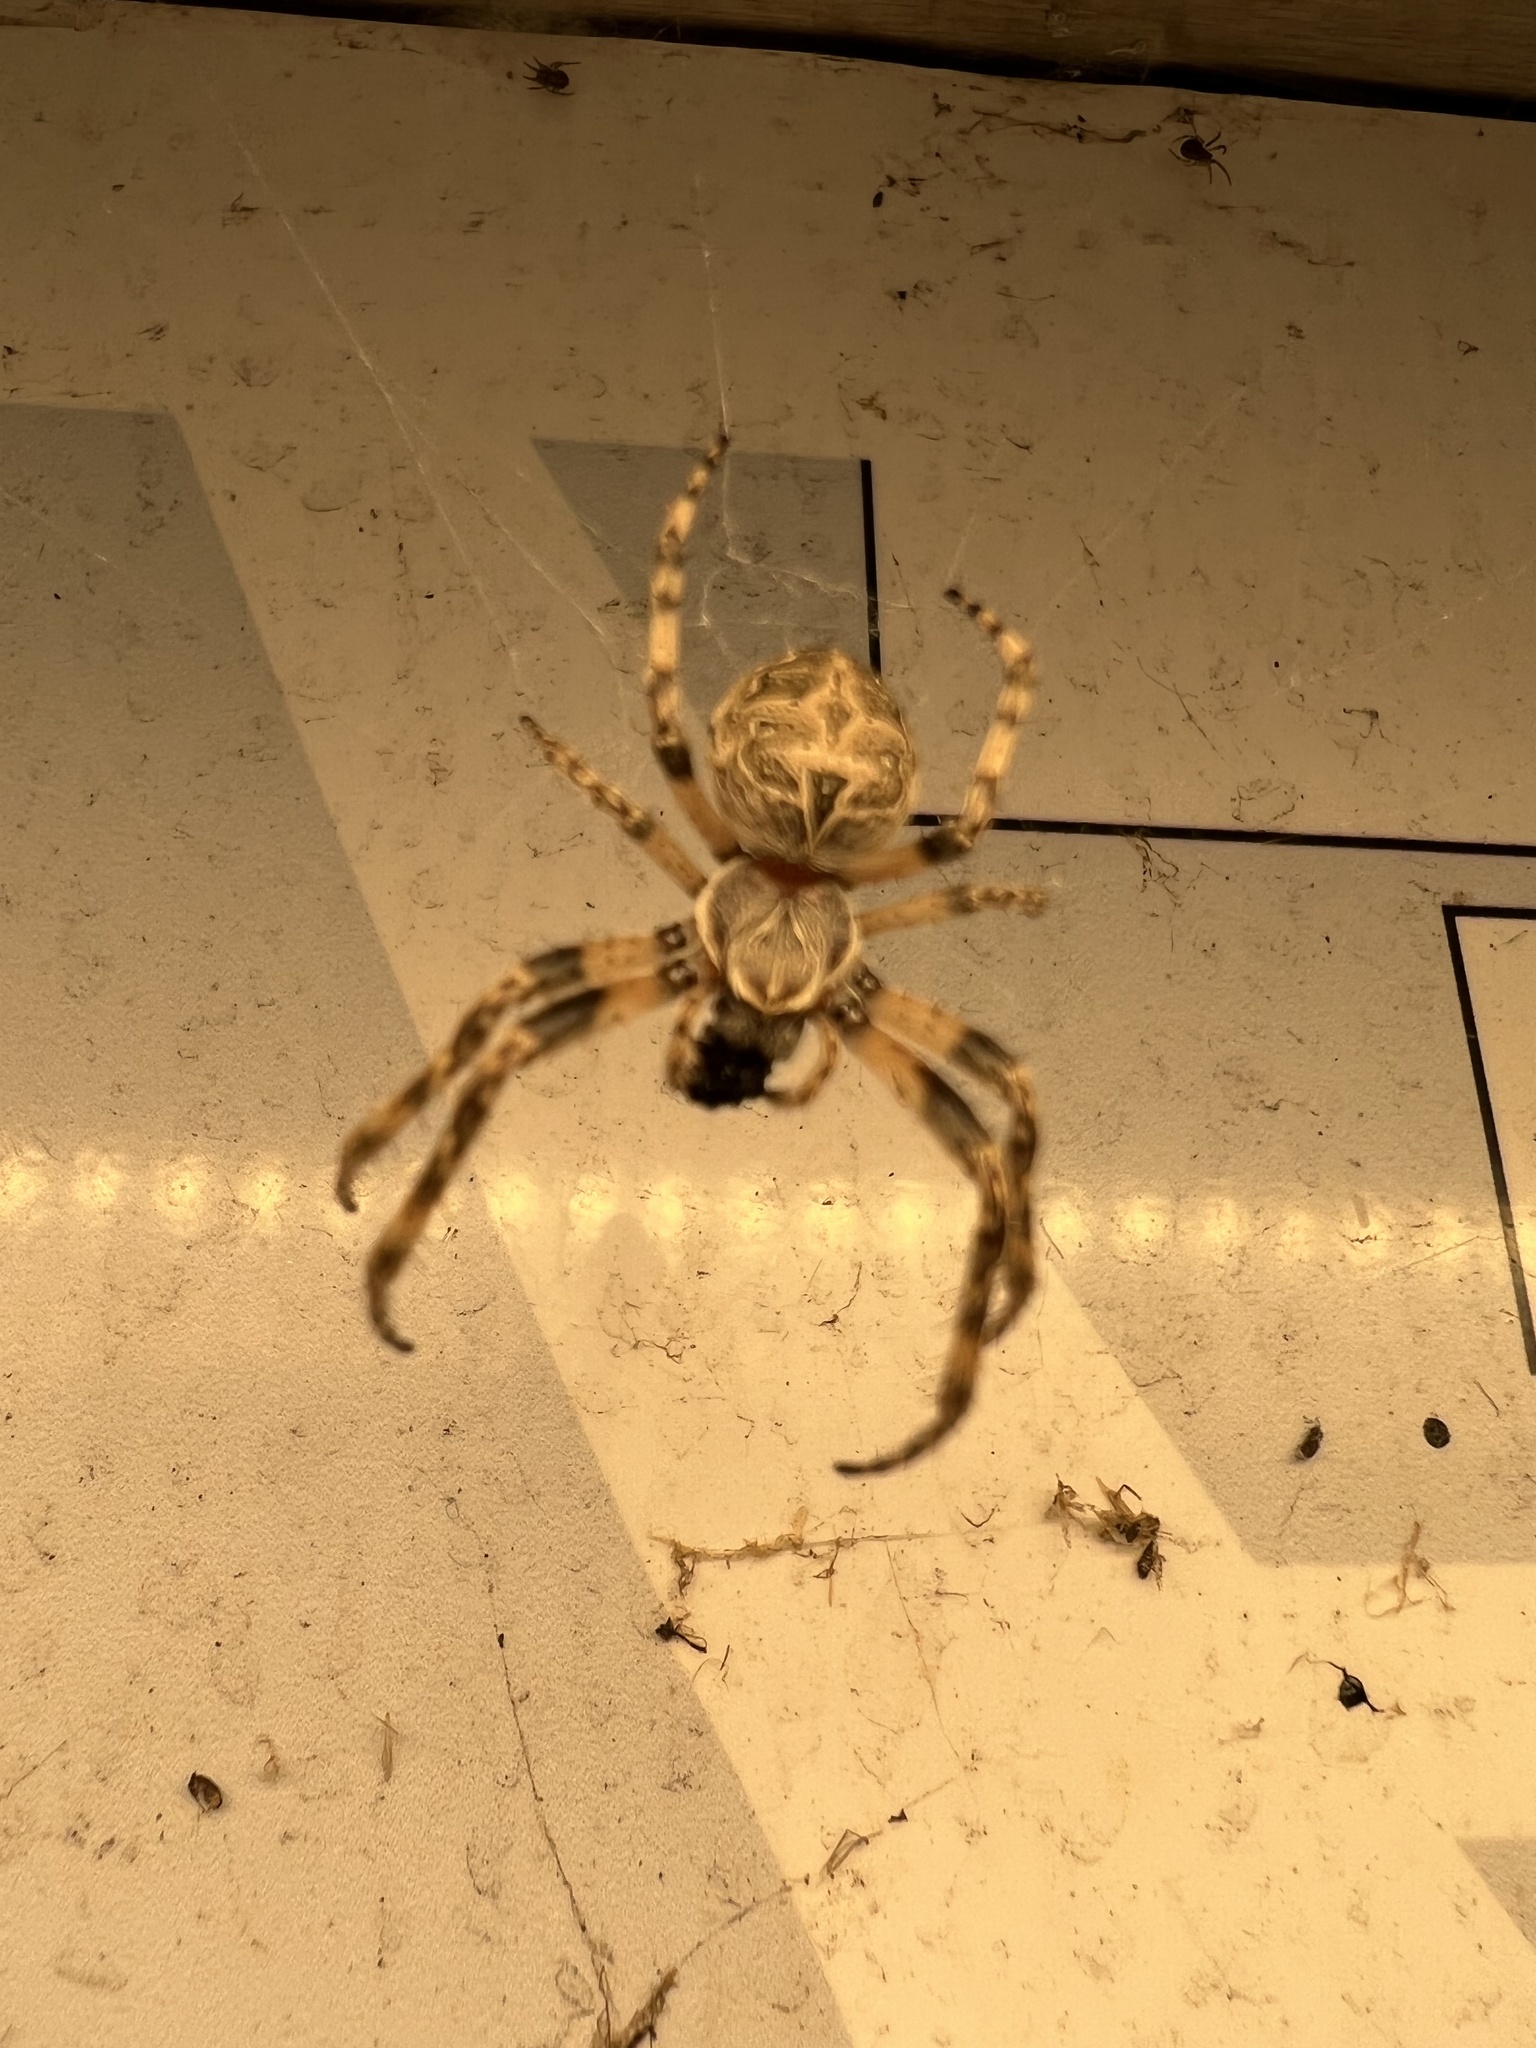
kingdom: Animalia
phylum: Arthropoda
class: Arachnida
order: Araneae
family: Araneidae
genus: Larinioides
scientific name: Larinioides sclopetarius
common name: Bridge orbweaver
